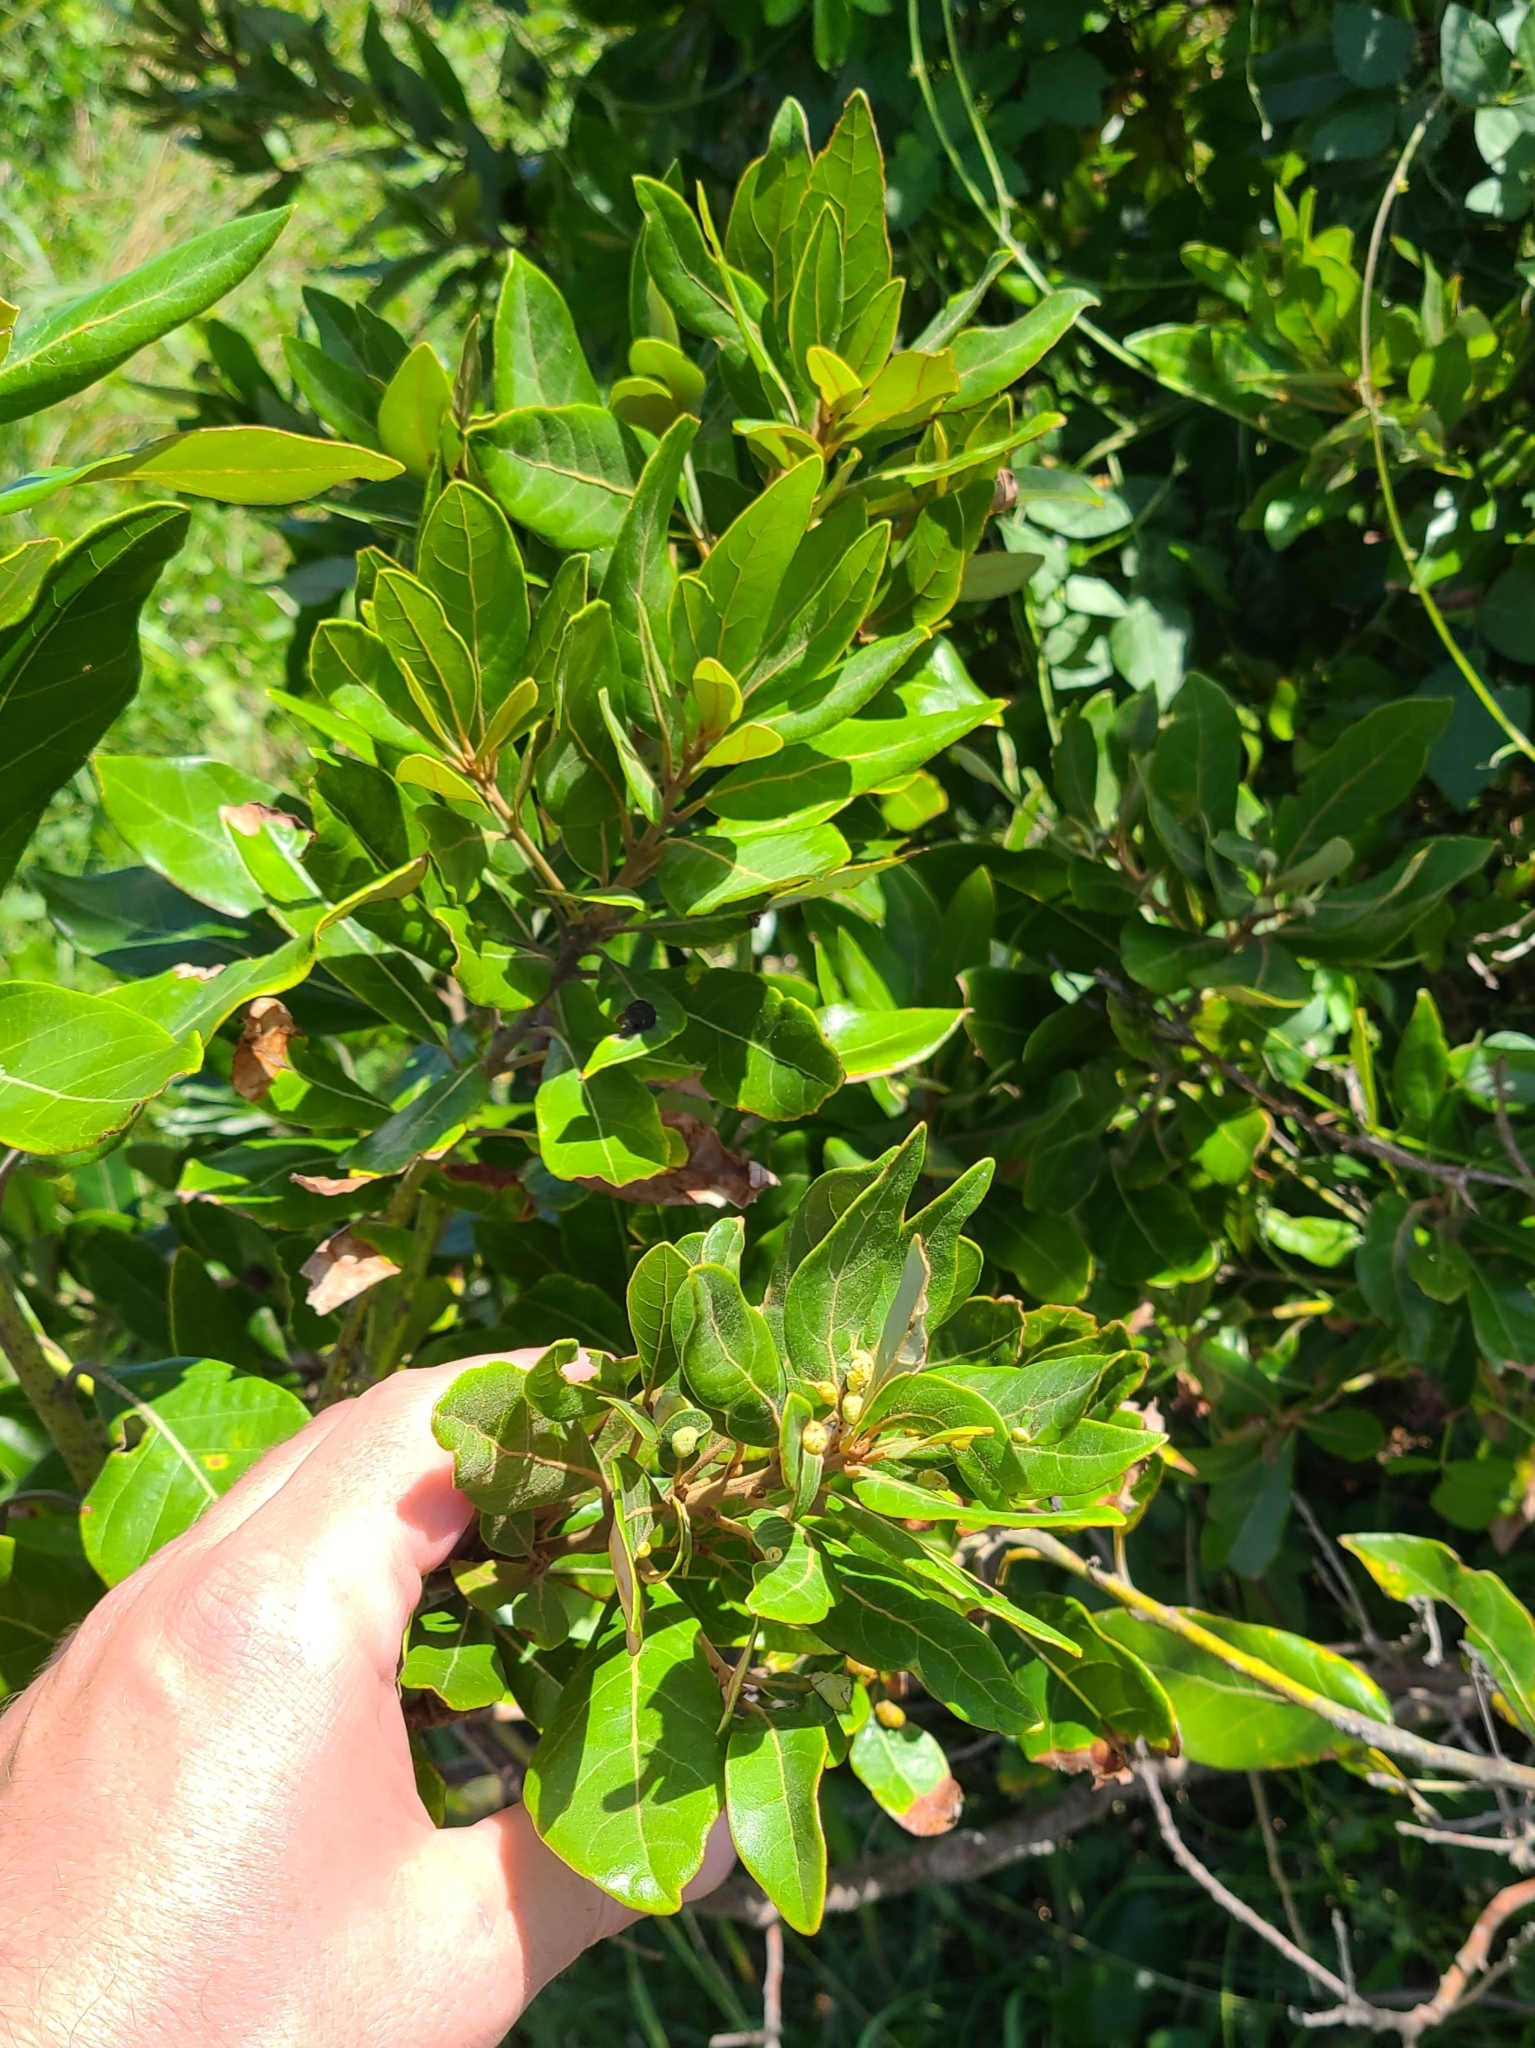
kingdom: Plantae
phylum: Tracheophyta
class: Magnoliopsida
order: Laurales
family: Lauraceae
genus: Persea
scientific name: Persea palustris
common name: Swampbay
